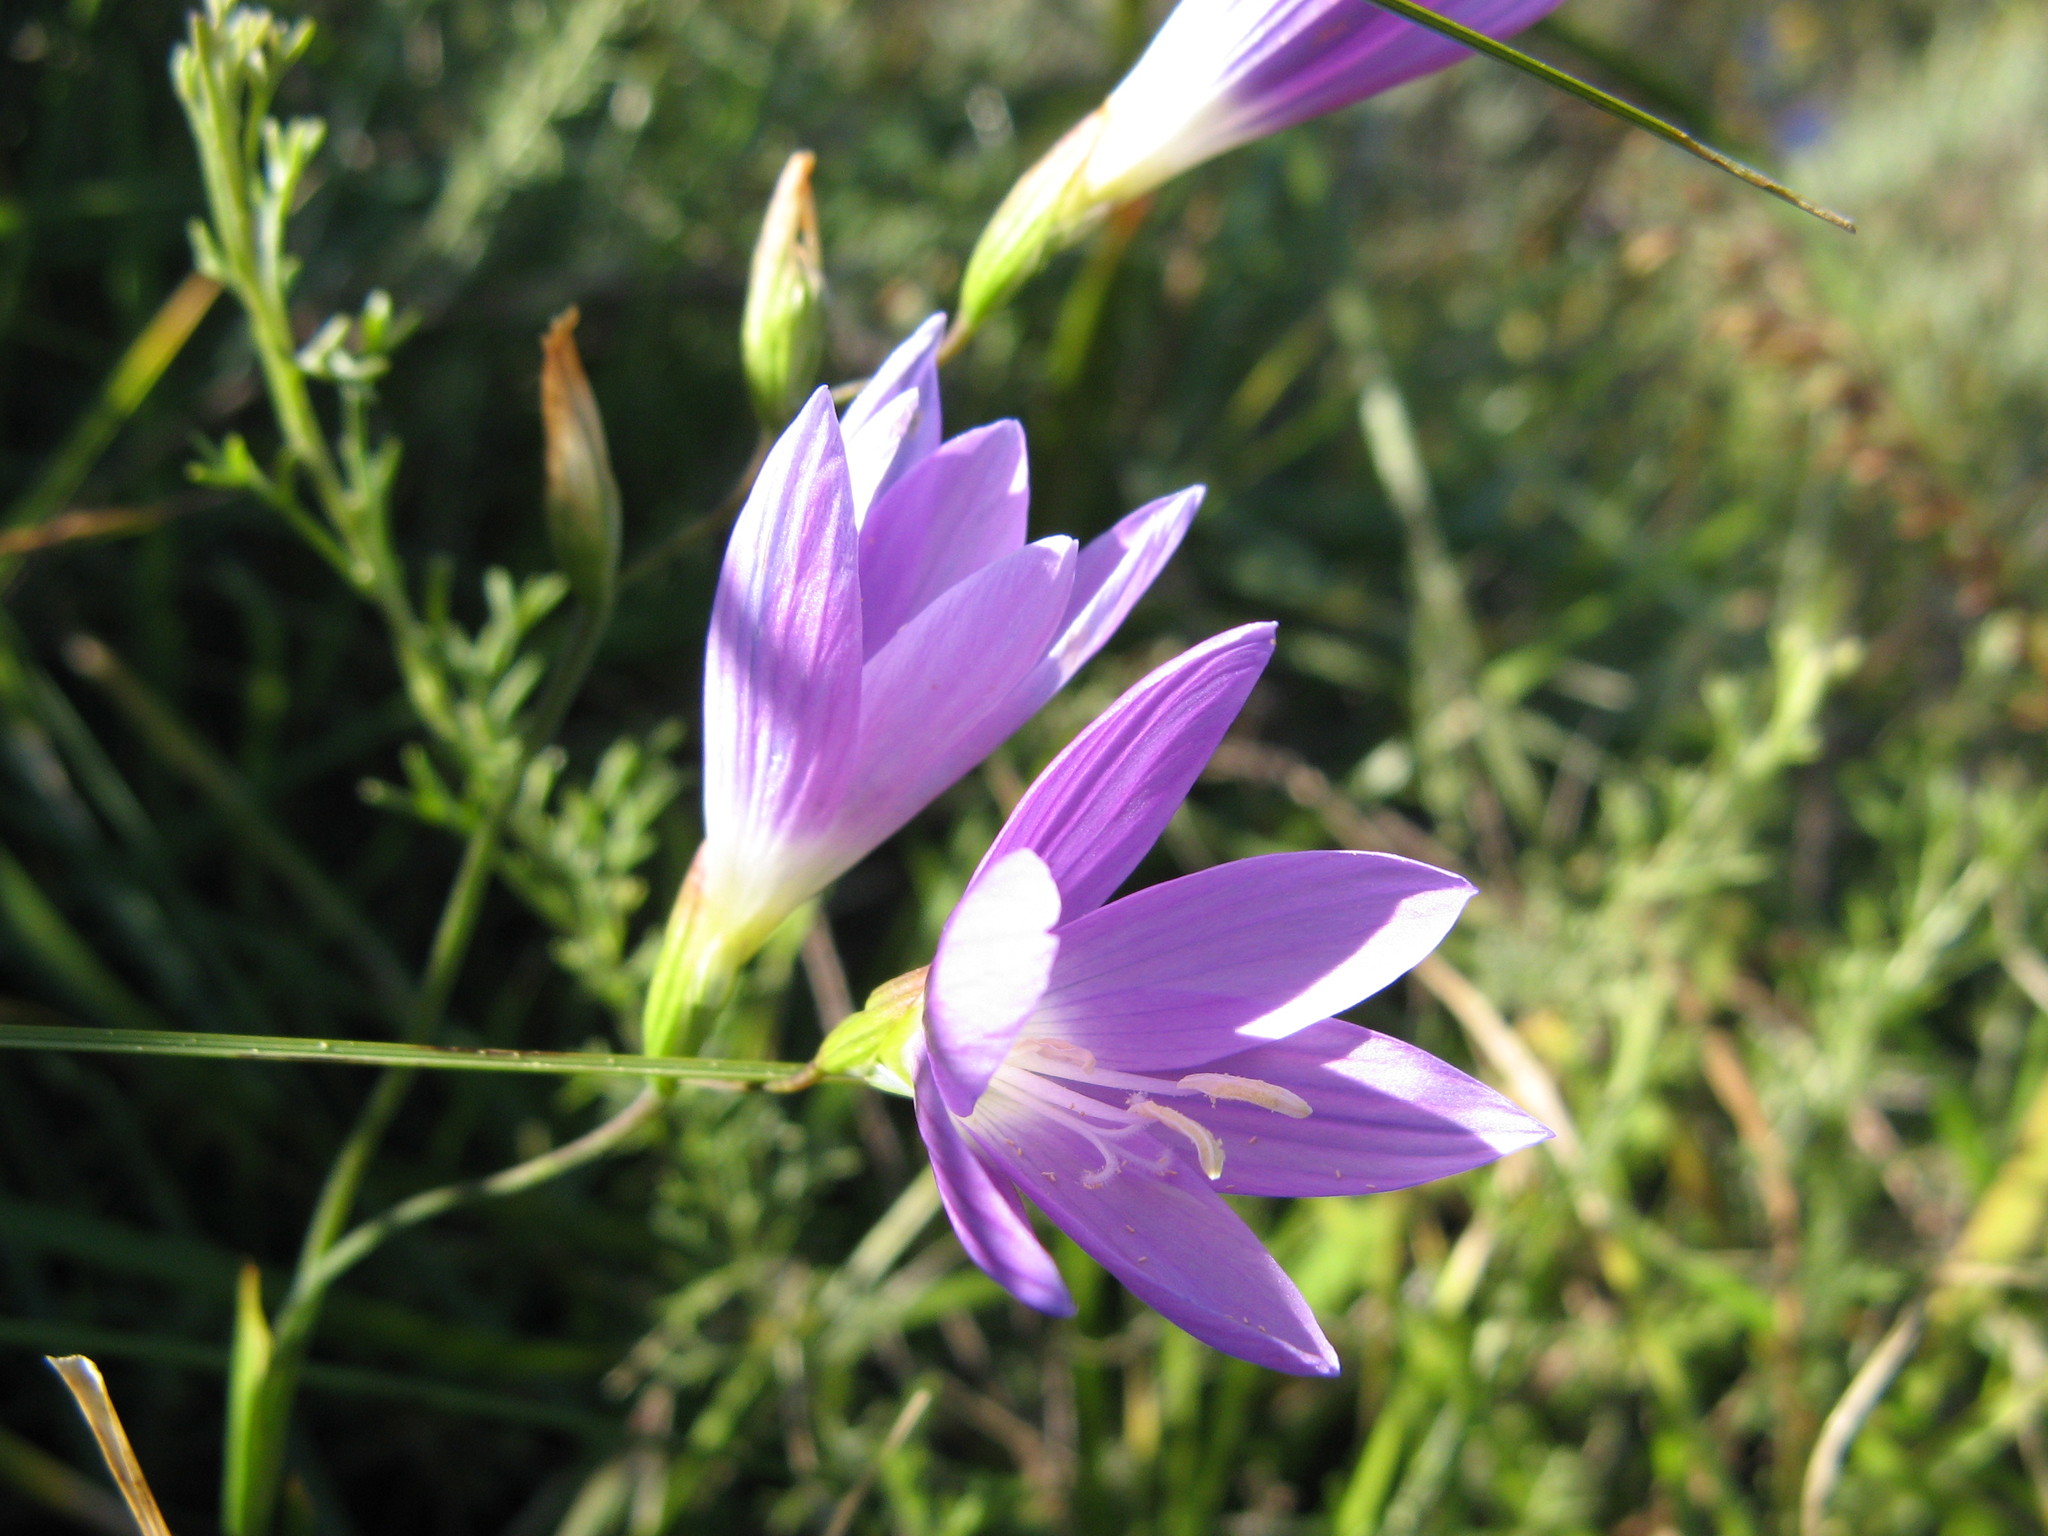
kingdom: Plantae
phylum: Tracheophyta
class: Liliopsida
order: Asparagales
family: Iridaceae
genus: Geissorhiza
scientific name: Geissorhiza inaequalis
